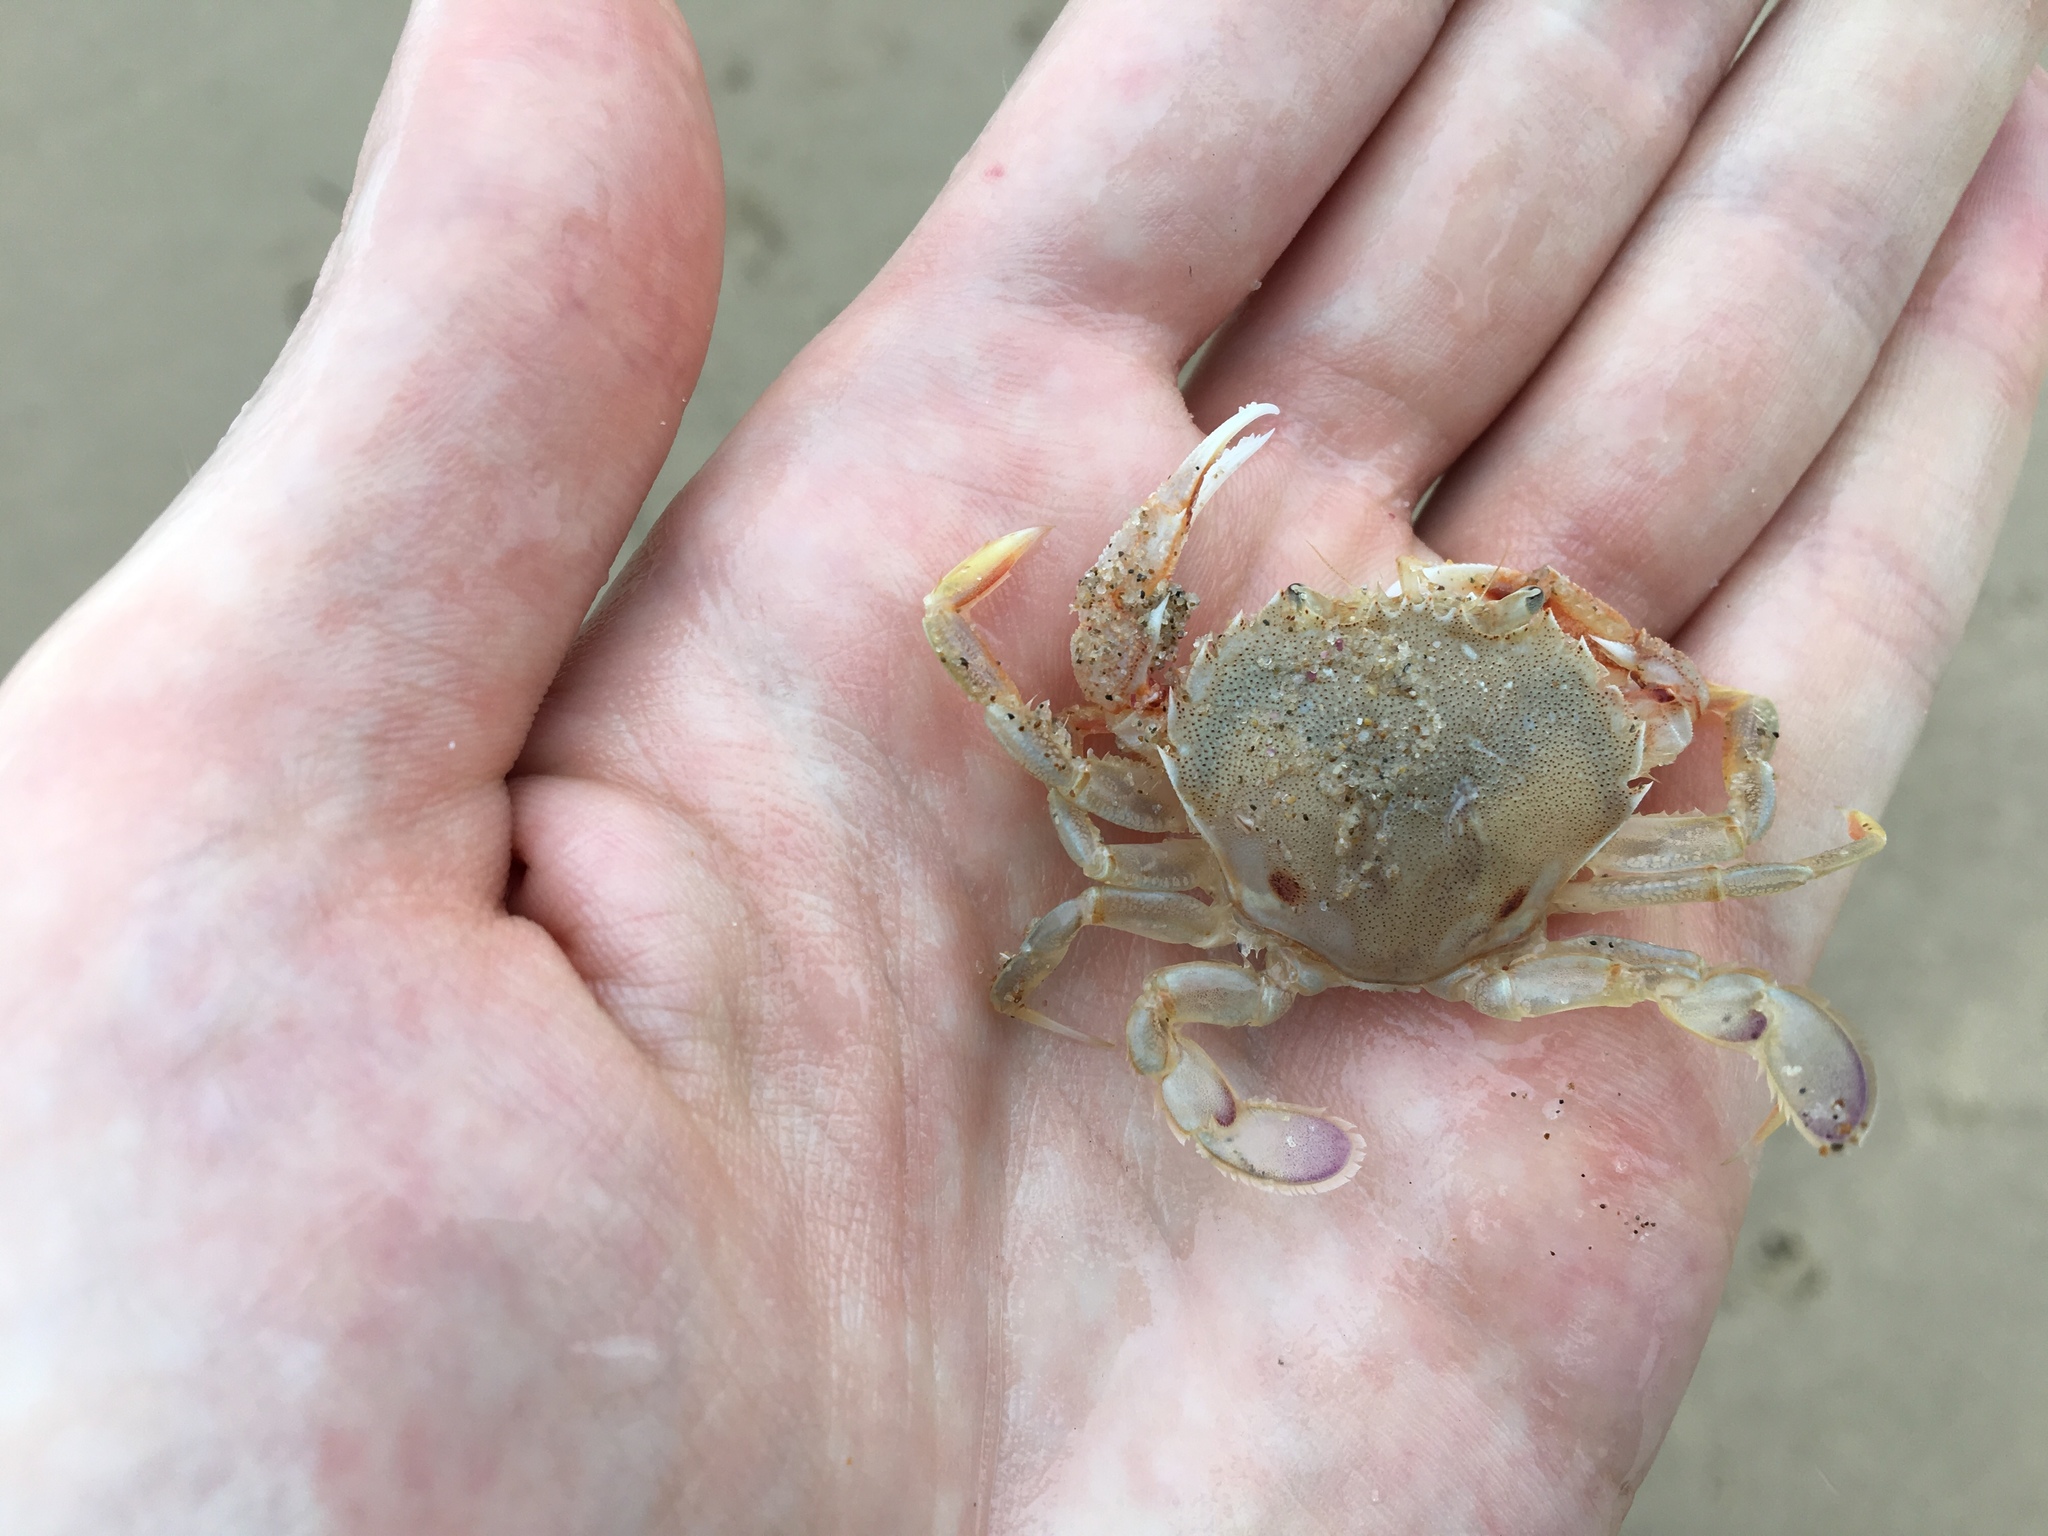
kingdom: Animalia
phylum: Arthropoda
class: Malacostraca
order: Decapoda
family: Ovalipidae
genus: Ovalipes
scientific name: Ovalipes australiensis
